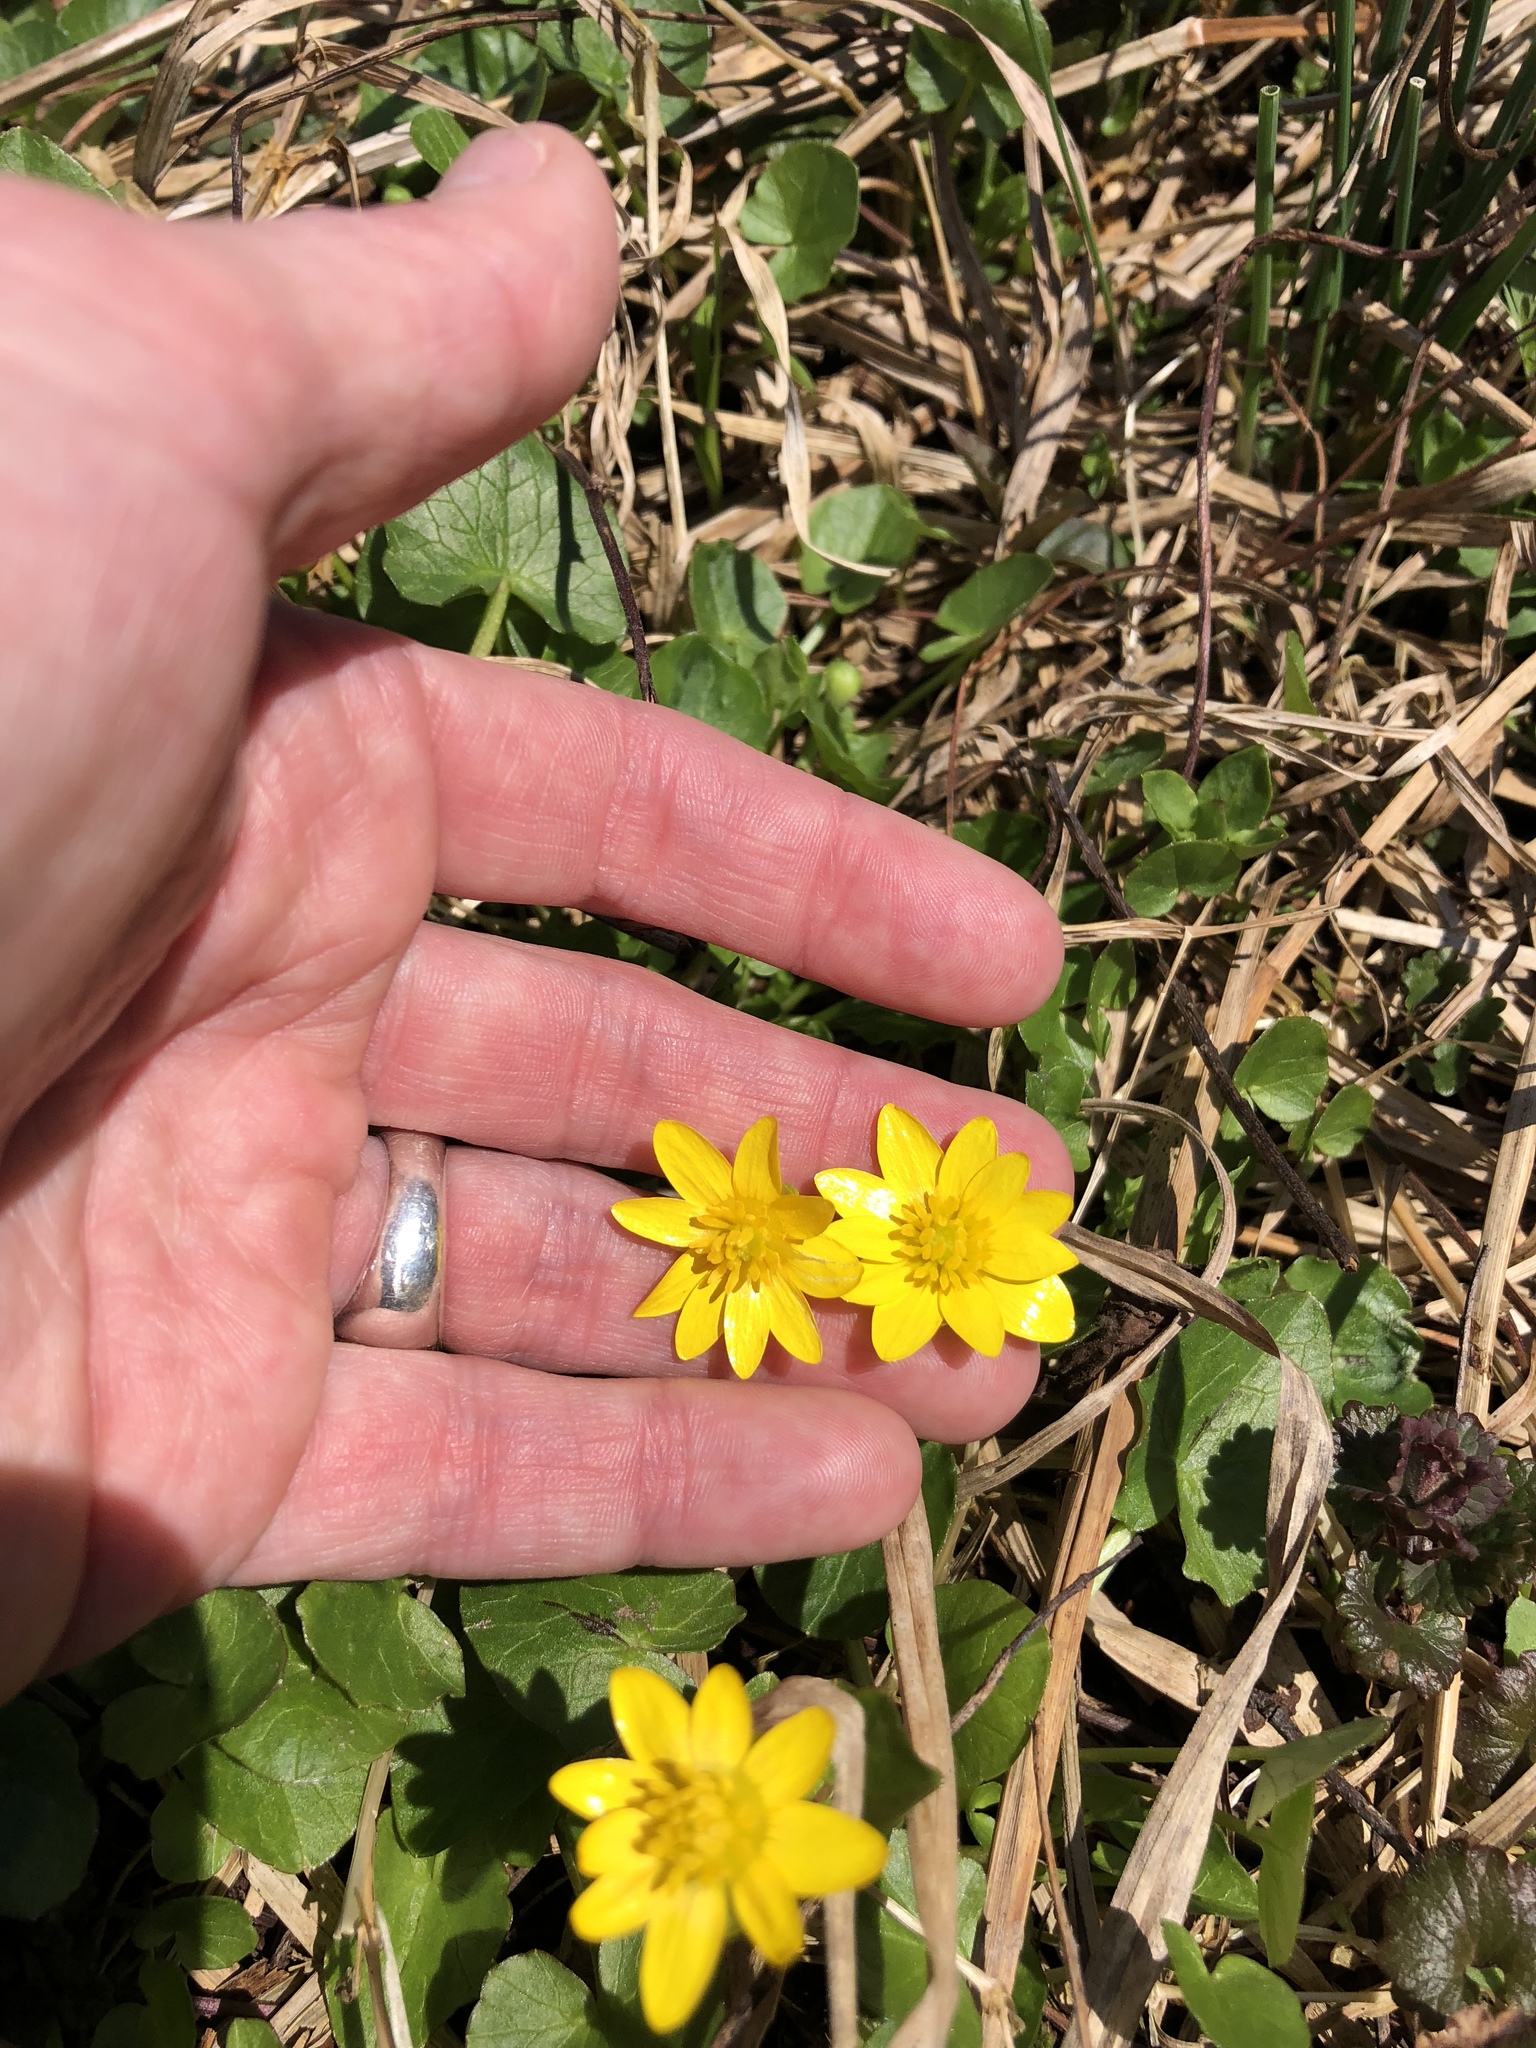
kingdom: Plantae
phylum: Tracheophyta
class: Magnoliopsida
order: Ranunculales
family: Ranunculaceae
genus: Ficaria
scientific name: Ficaria verna
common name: Lesser celandine
